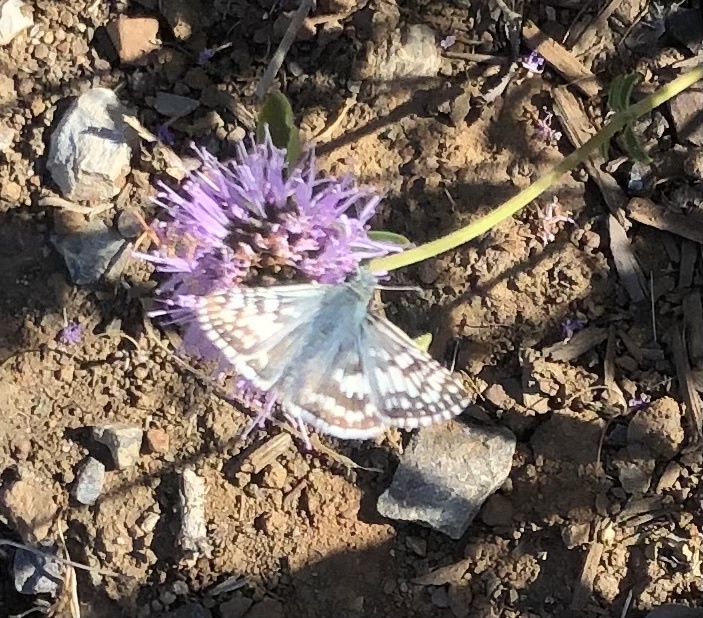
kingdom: Animalia
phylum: Arthropoda
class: Insecta
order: Lepidoptera
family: Hesperiidae
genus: Burnsius
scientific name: Burnsius communis
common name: Common checkered-skipper
